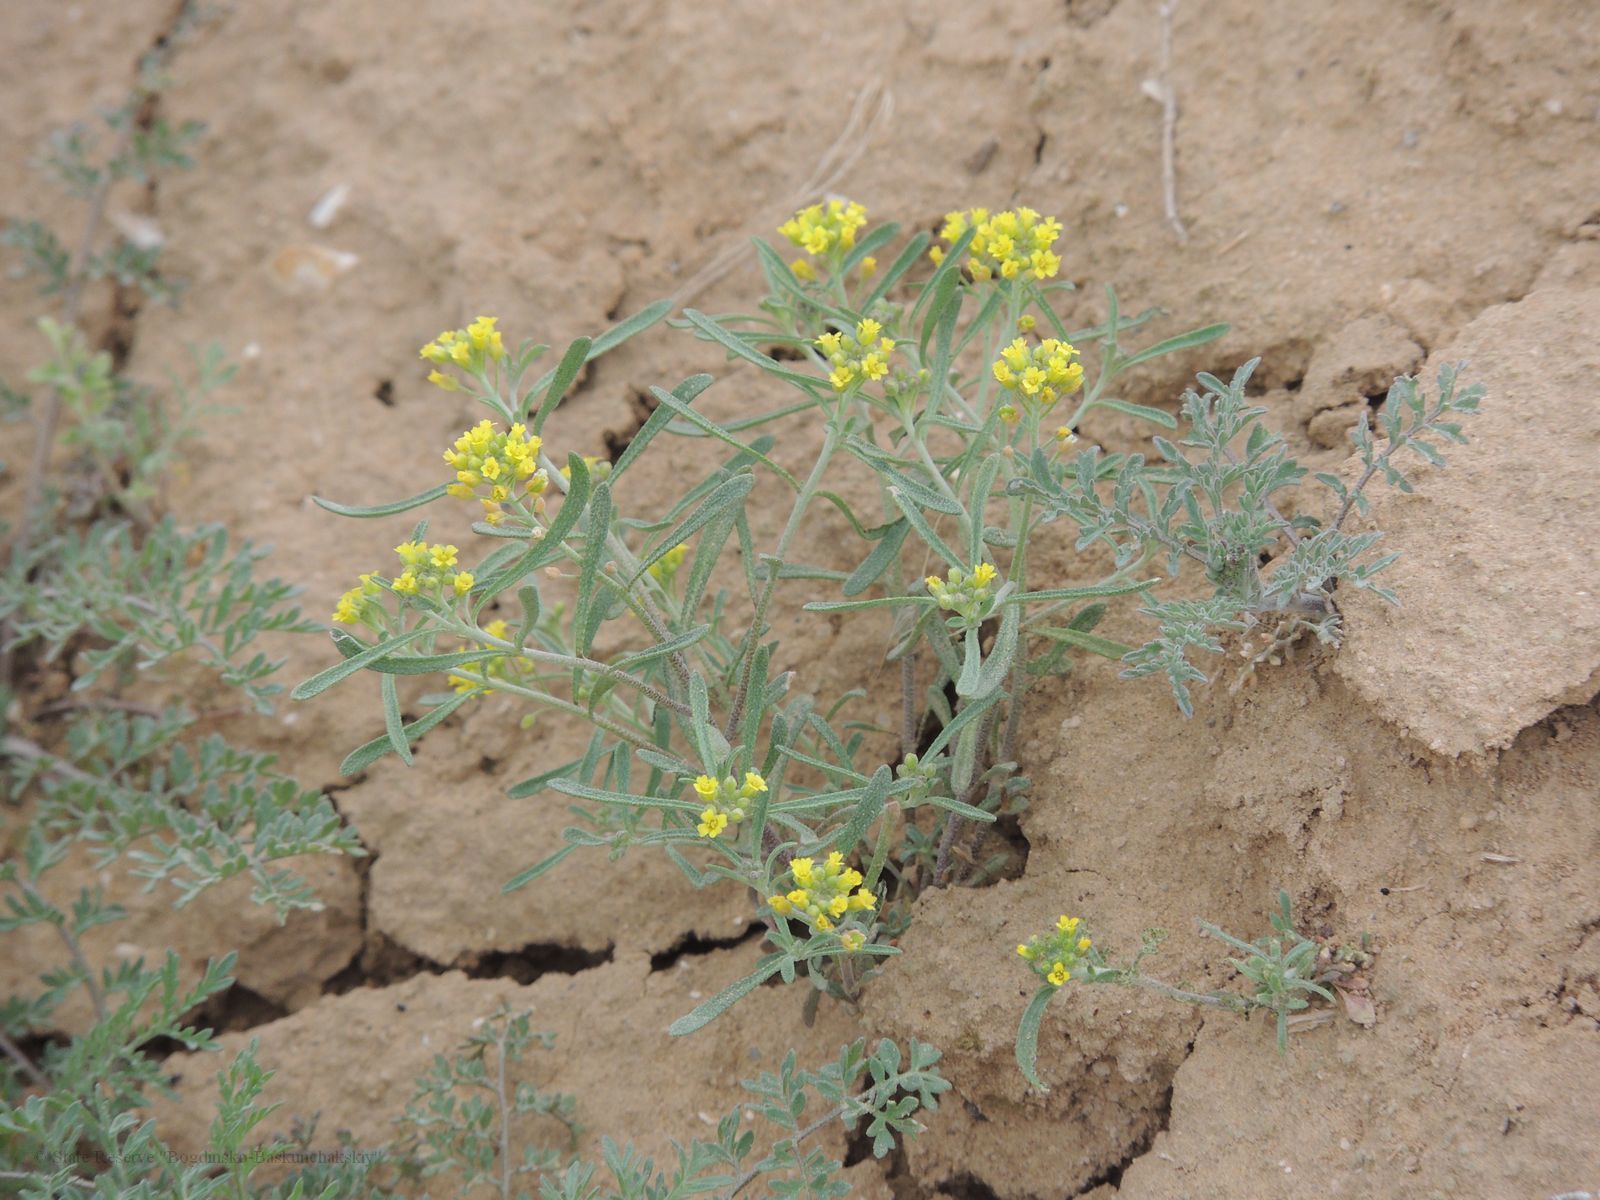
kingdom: Plantae
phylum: Tracheophyta
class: Magnoliopsida
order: Brassicales
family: Brassicaceae
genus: Meniocus
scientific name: Meniocus linifolius
